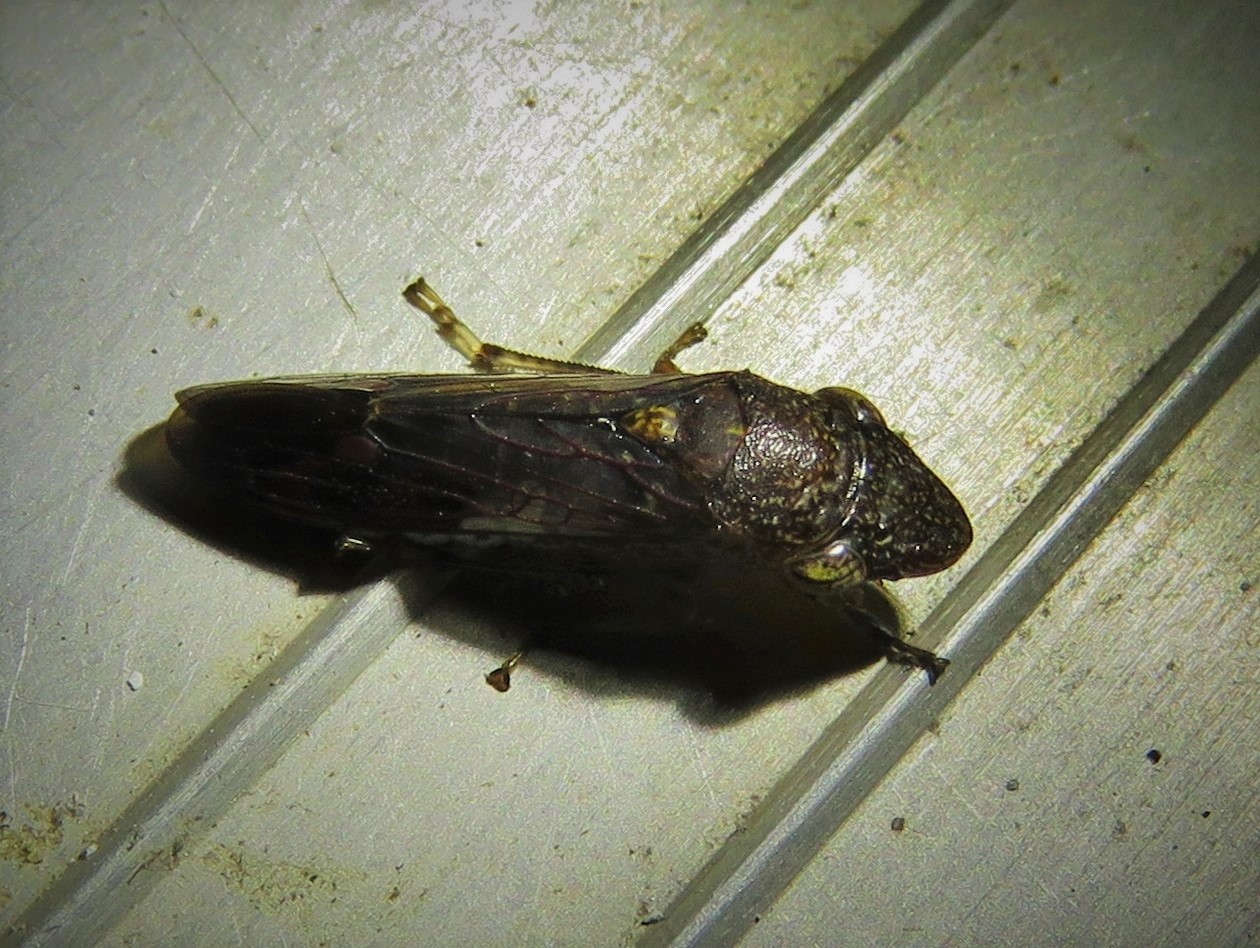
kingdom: Animalia
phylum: Arthropoda
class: Insecta
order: Hemiptera
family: Cicadellidae
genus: Homalodisca
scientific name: Homalodisca vitripennis
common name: Glassy-winged sharpshooter
